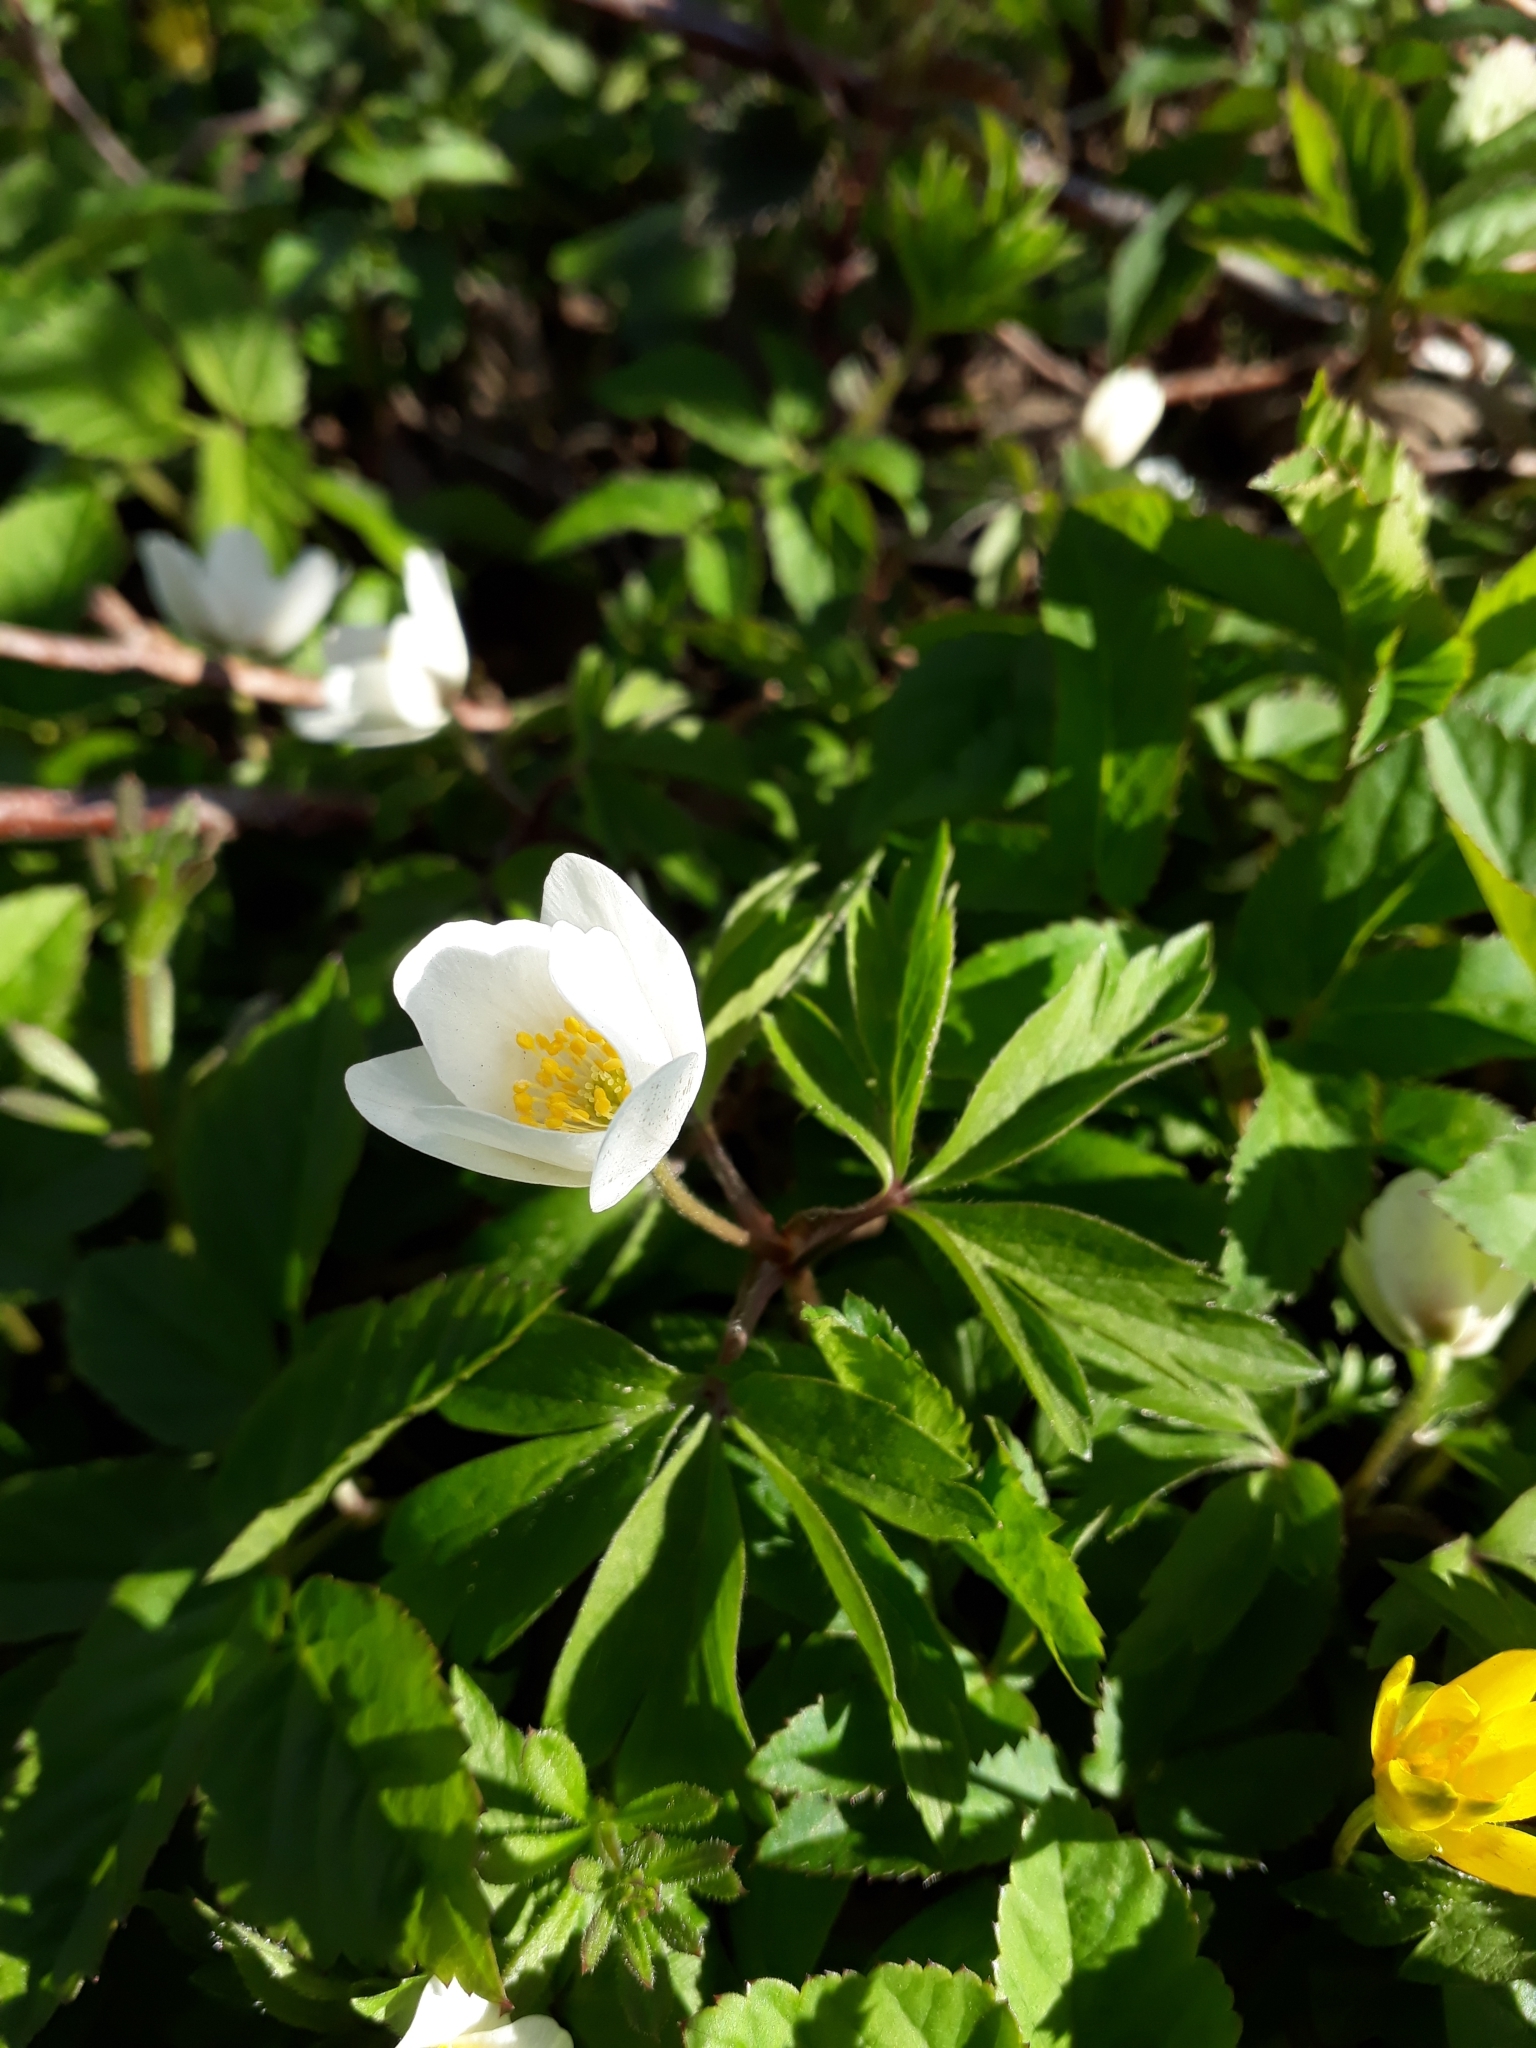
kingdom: Plantae
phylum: Tracheophyta
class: Magnoliopsida
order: Ranunculales
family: Ranunculaceae
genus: Anemone
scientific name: Anemone nemorosa
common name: Wood anemone
